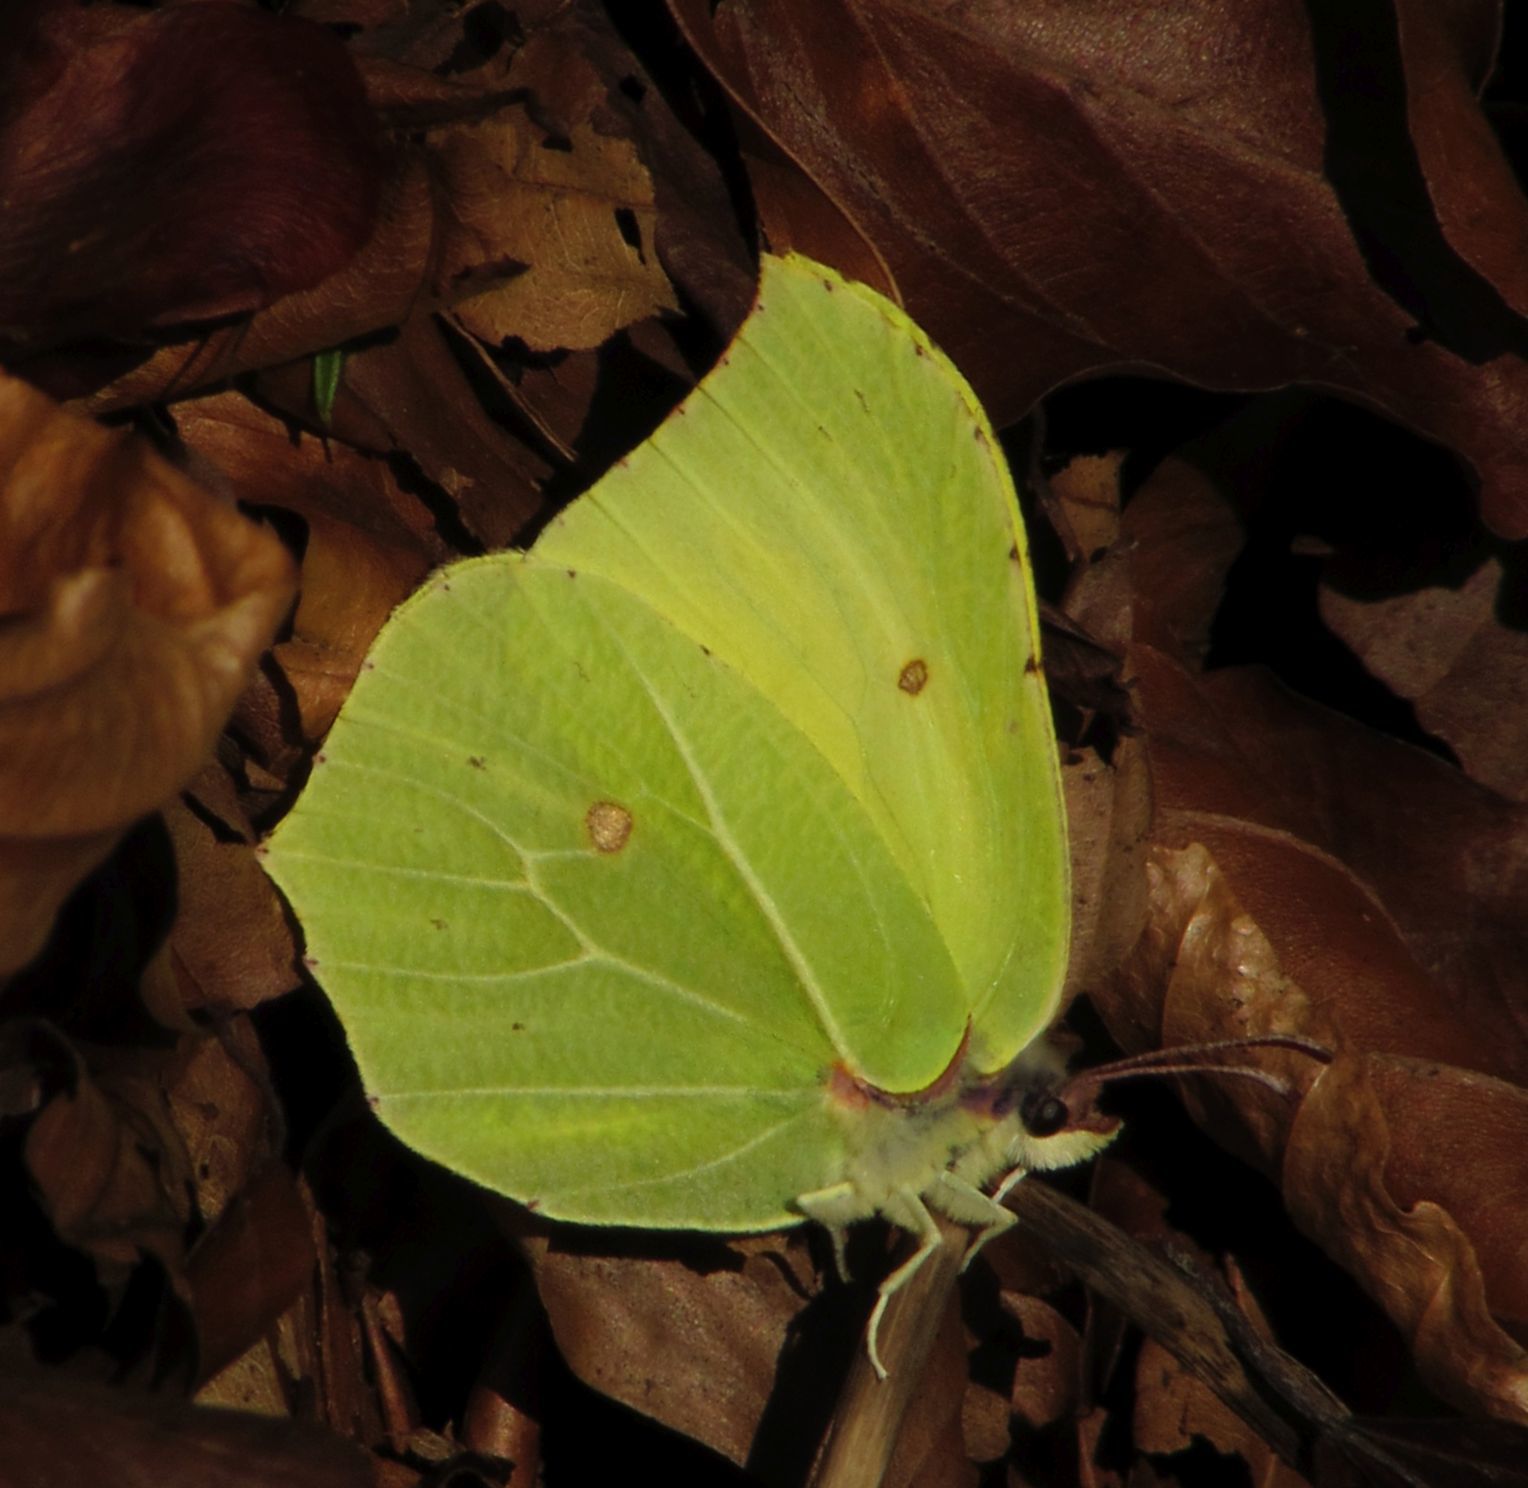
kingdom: Animalia
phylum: Arthropoda
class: Insecta
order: Lepidoptera
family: Pieridae
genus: Gonepteryx
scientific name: Gonepteryx rhamni
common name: Brimstone
